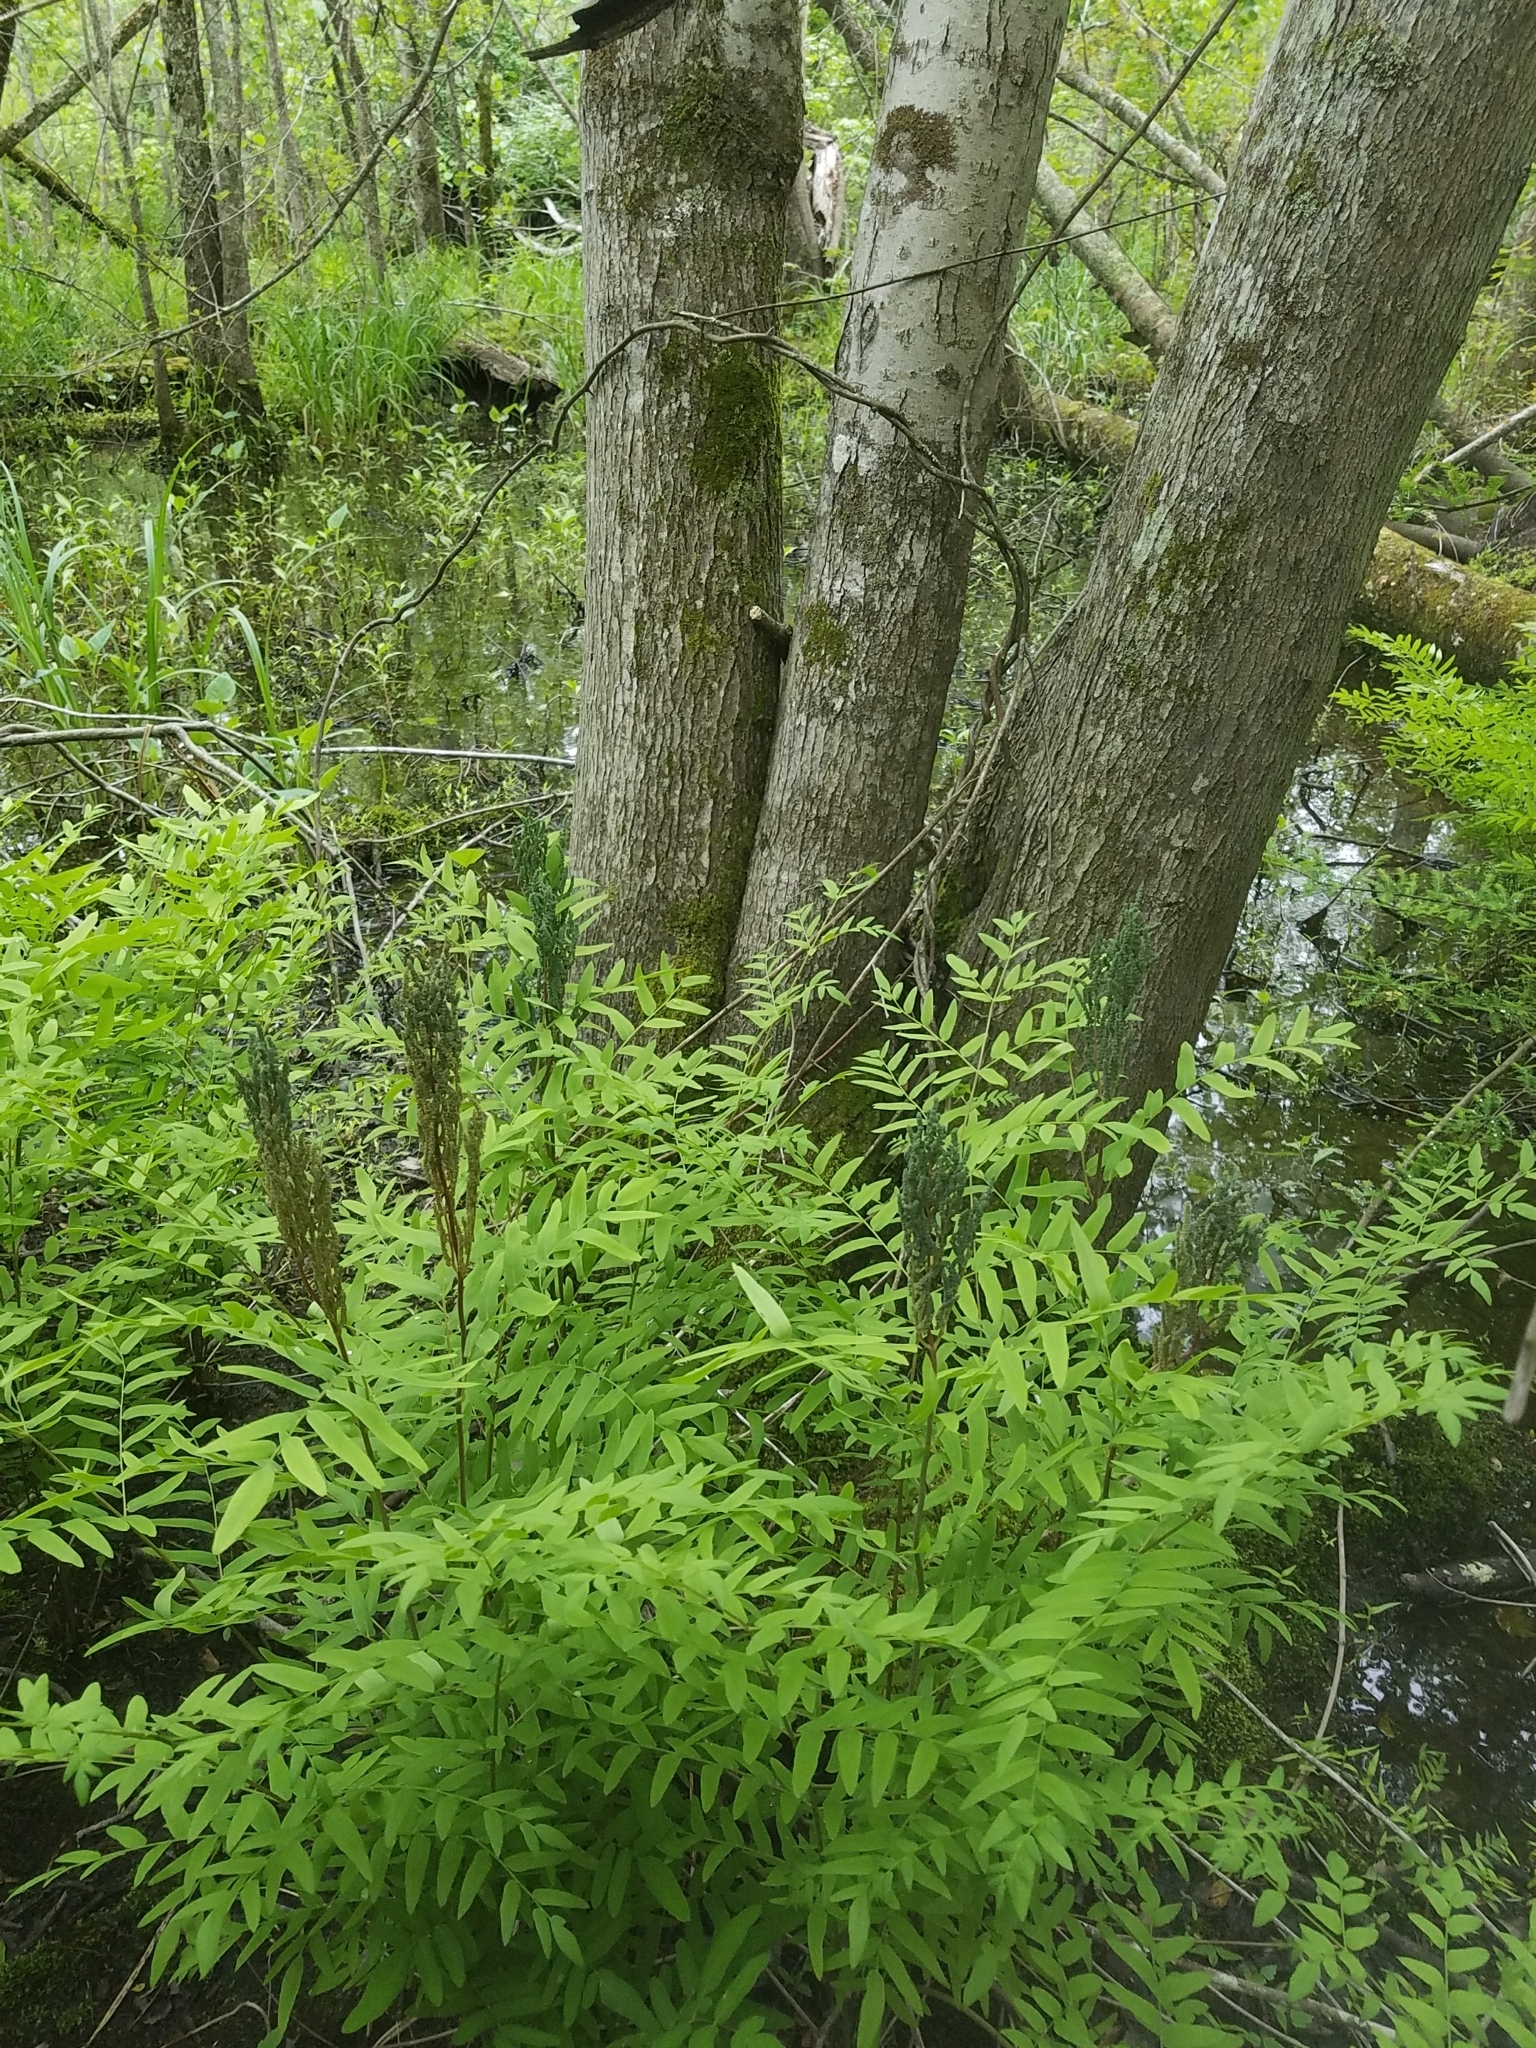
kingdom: Plantae
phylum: Tracheophyta
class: Polypodiopsida
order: Osmundales
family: Osmundaceae
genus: Osmunda
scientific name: Osmunda spectabilis
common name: American royal fern
